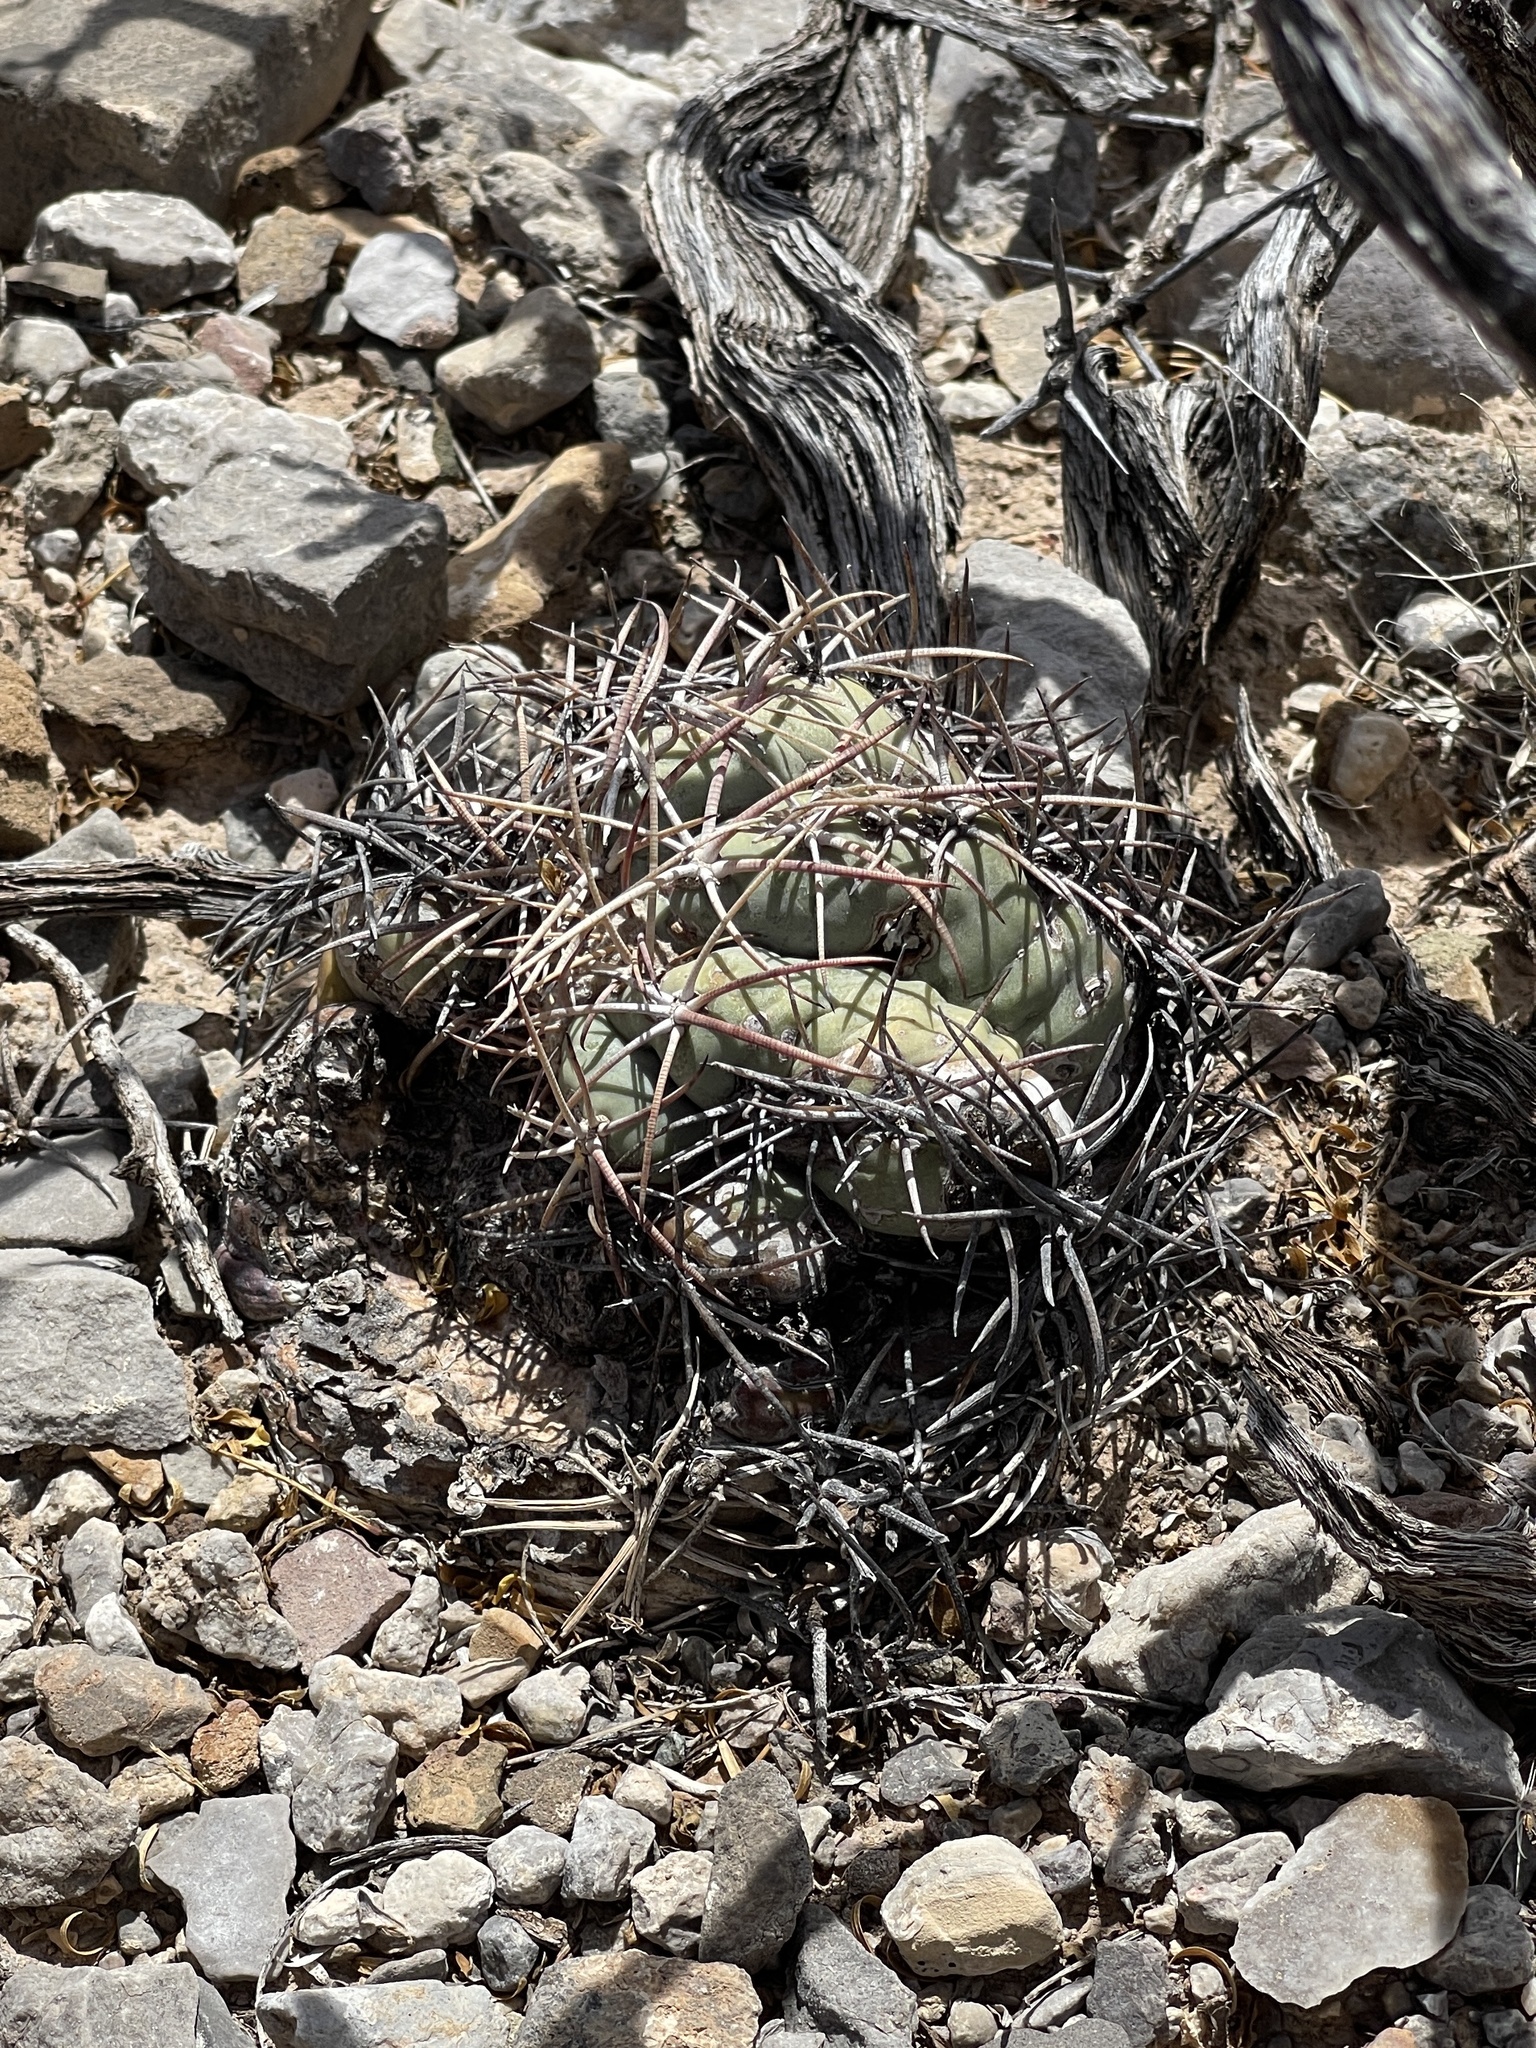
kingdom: Plantae
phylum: Tracheophyta
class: Magnoliopsida
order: Caryophyllales
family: Cactaceae
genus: Echinocactus
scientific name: Echinocactus horizonthalonius
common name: Devilshead
